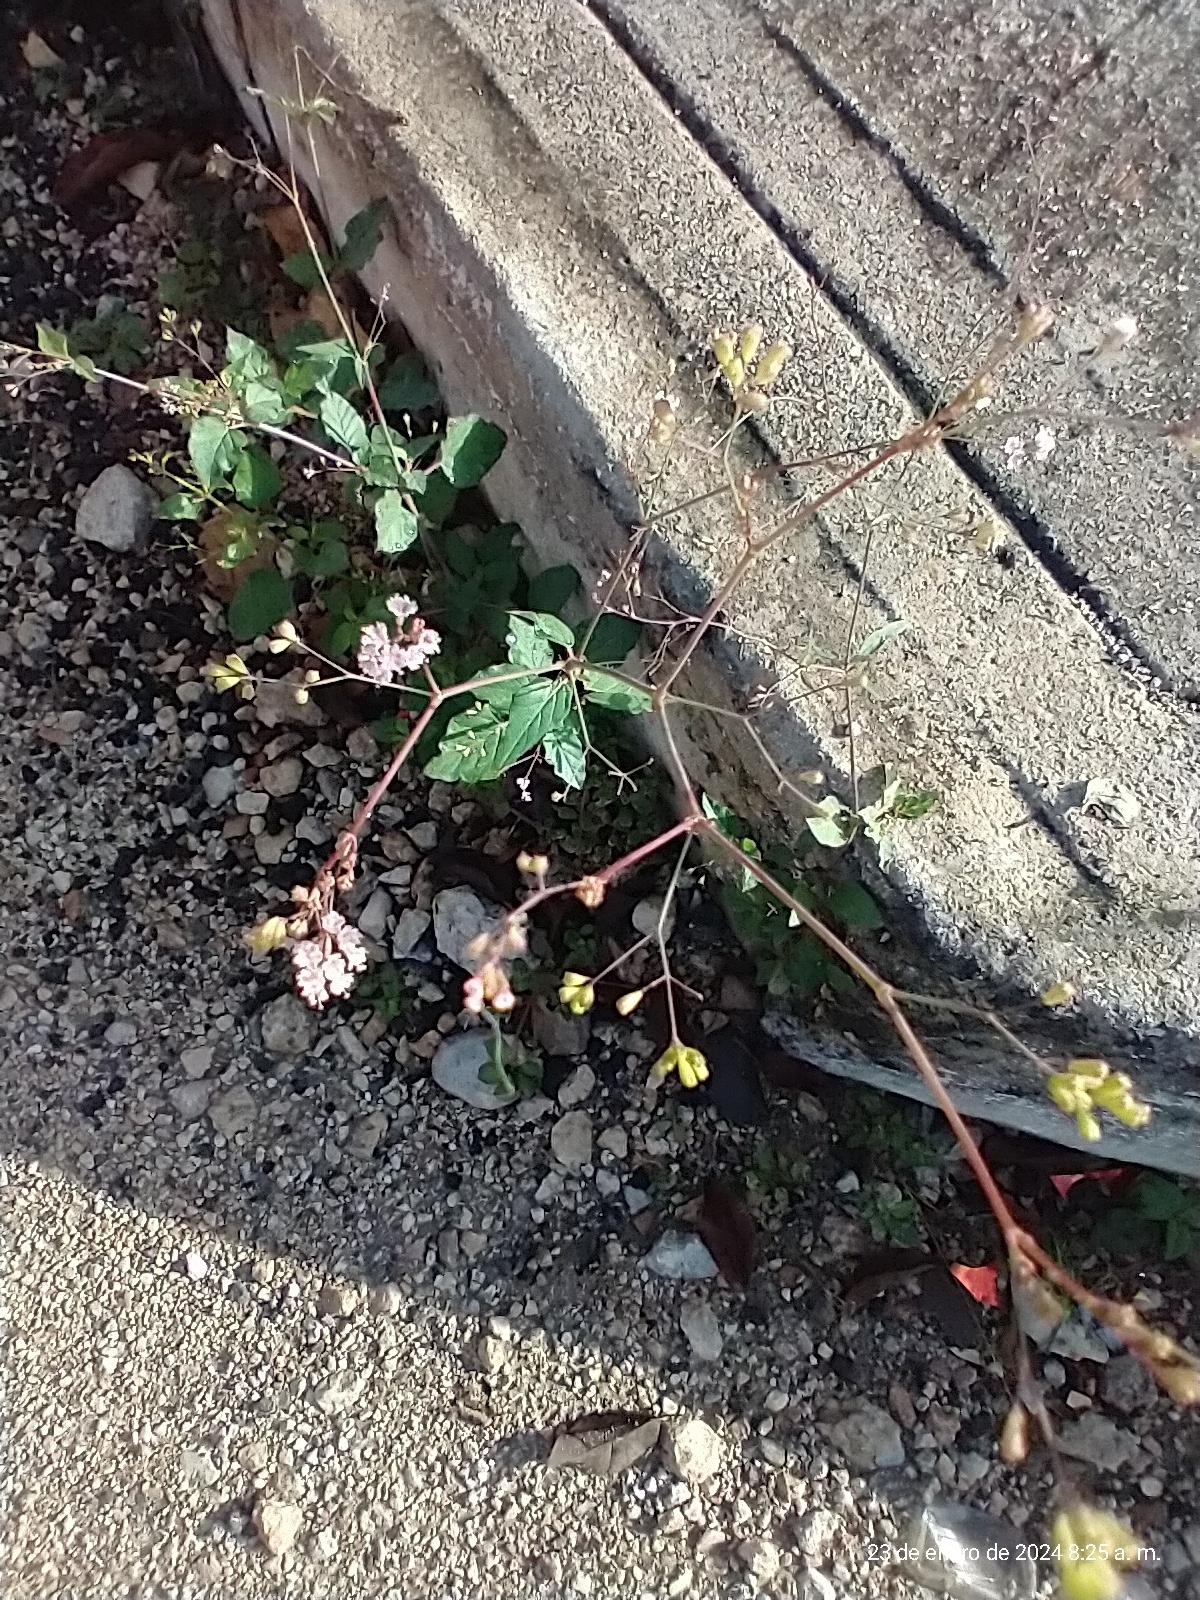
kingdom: Plantae
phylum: Tracheophyta
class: Magnoliopsida
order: Caryophyllales
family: Nyctaginaceae
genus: Boerhavia
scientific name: Boerhavia erecta
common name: Erect spiderling
